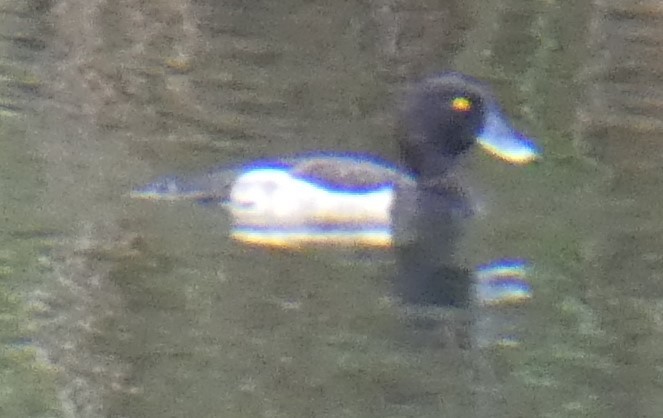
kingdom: Animalia
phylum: Chordata
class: Aves
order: Anseriformes
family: Anatidae
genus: Aythya
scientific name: Aythya fuligula
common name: Tufted duck
